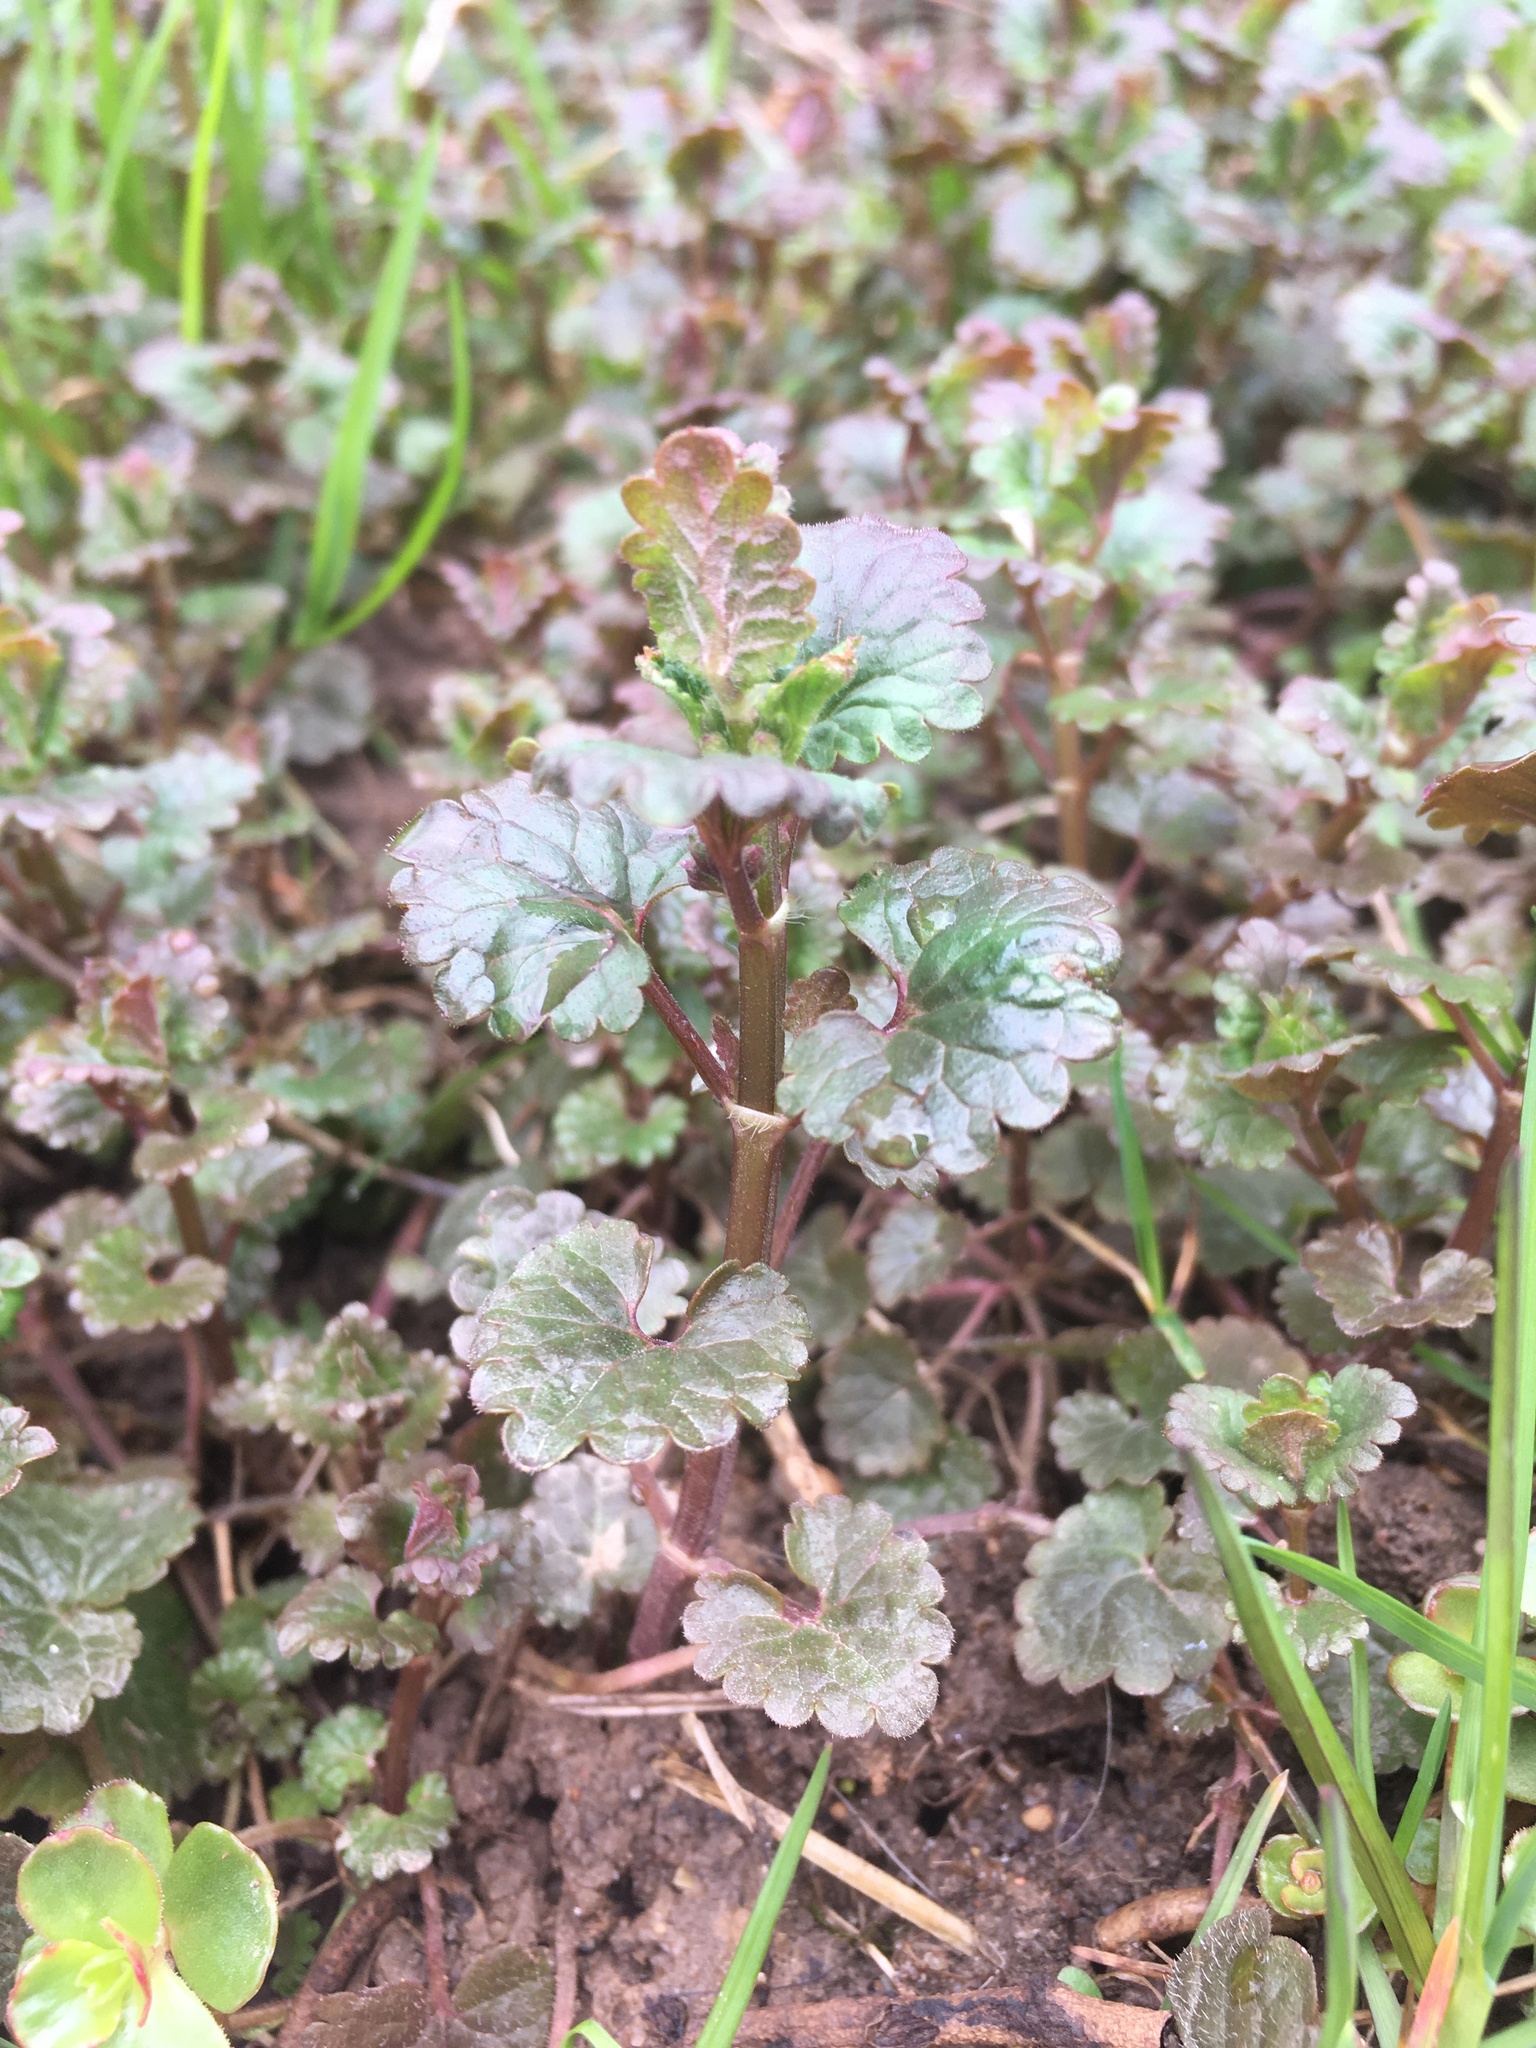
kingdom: Plantae
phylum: Tracheophyta
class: Magnoliopsida
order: Lamiales
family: Lamiaceae
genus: Glechoma
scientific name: Glechoma hederacea
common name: Ground ivy
